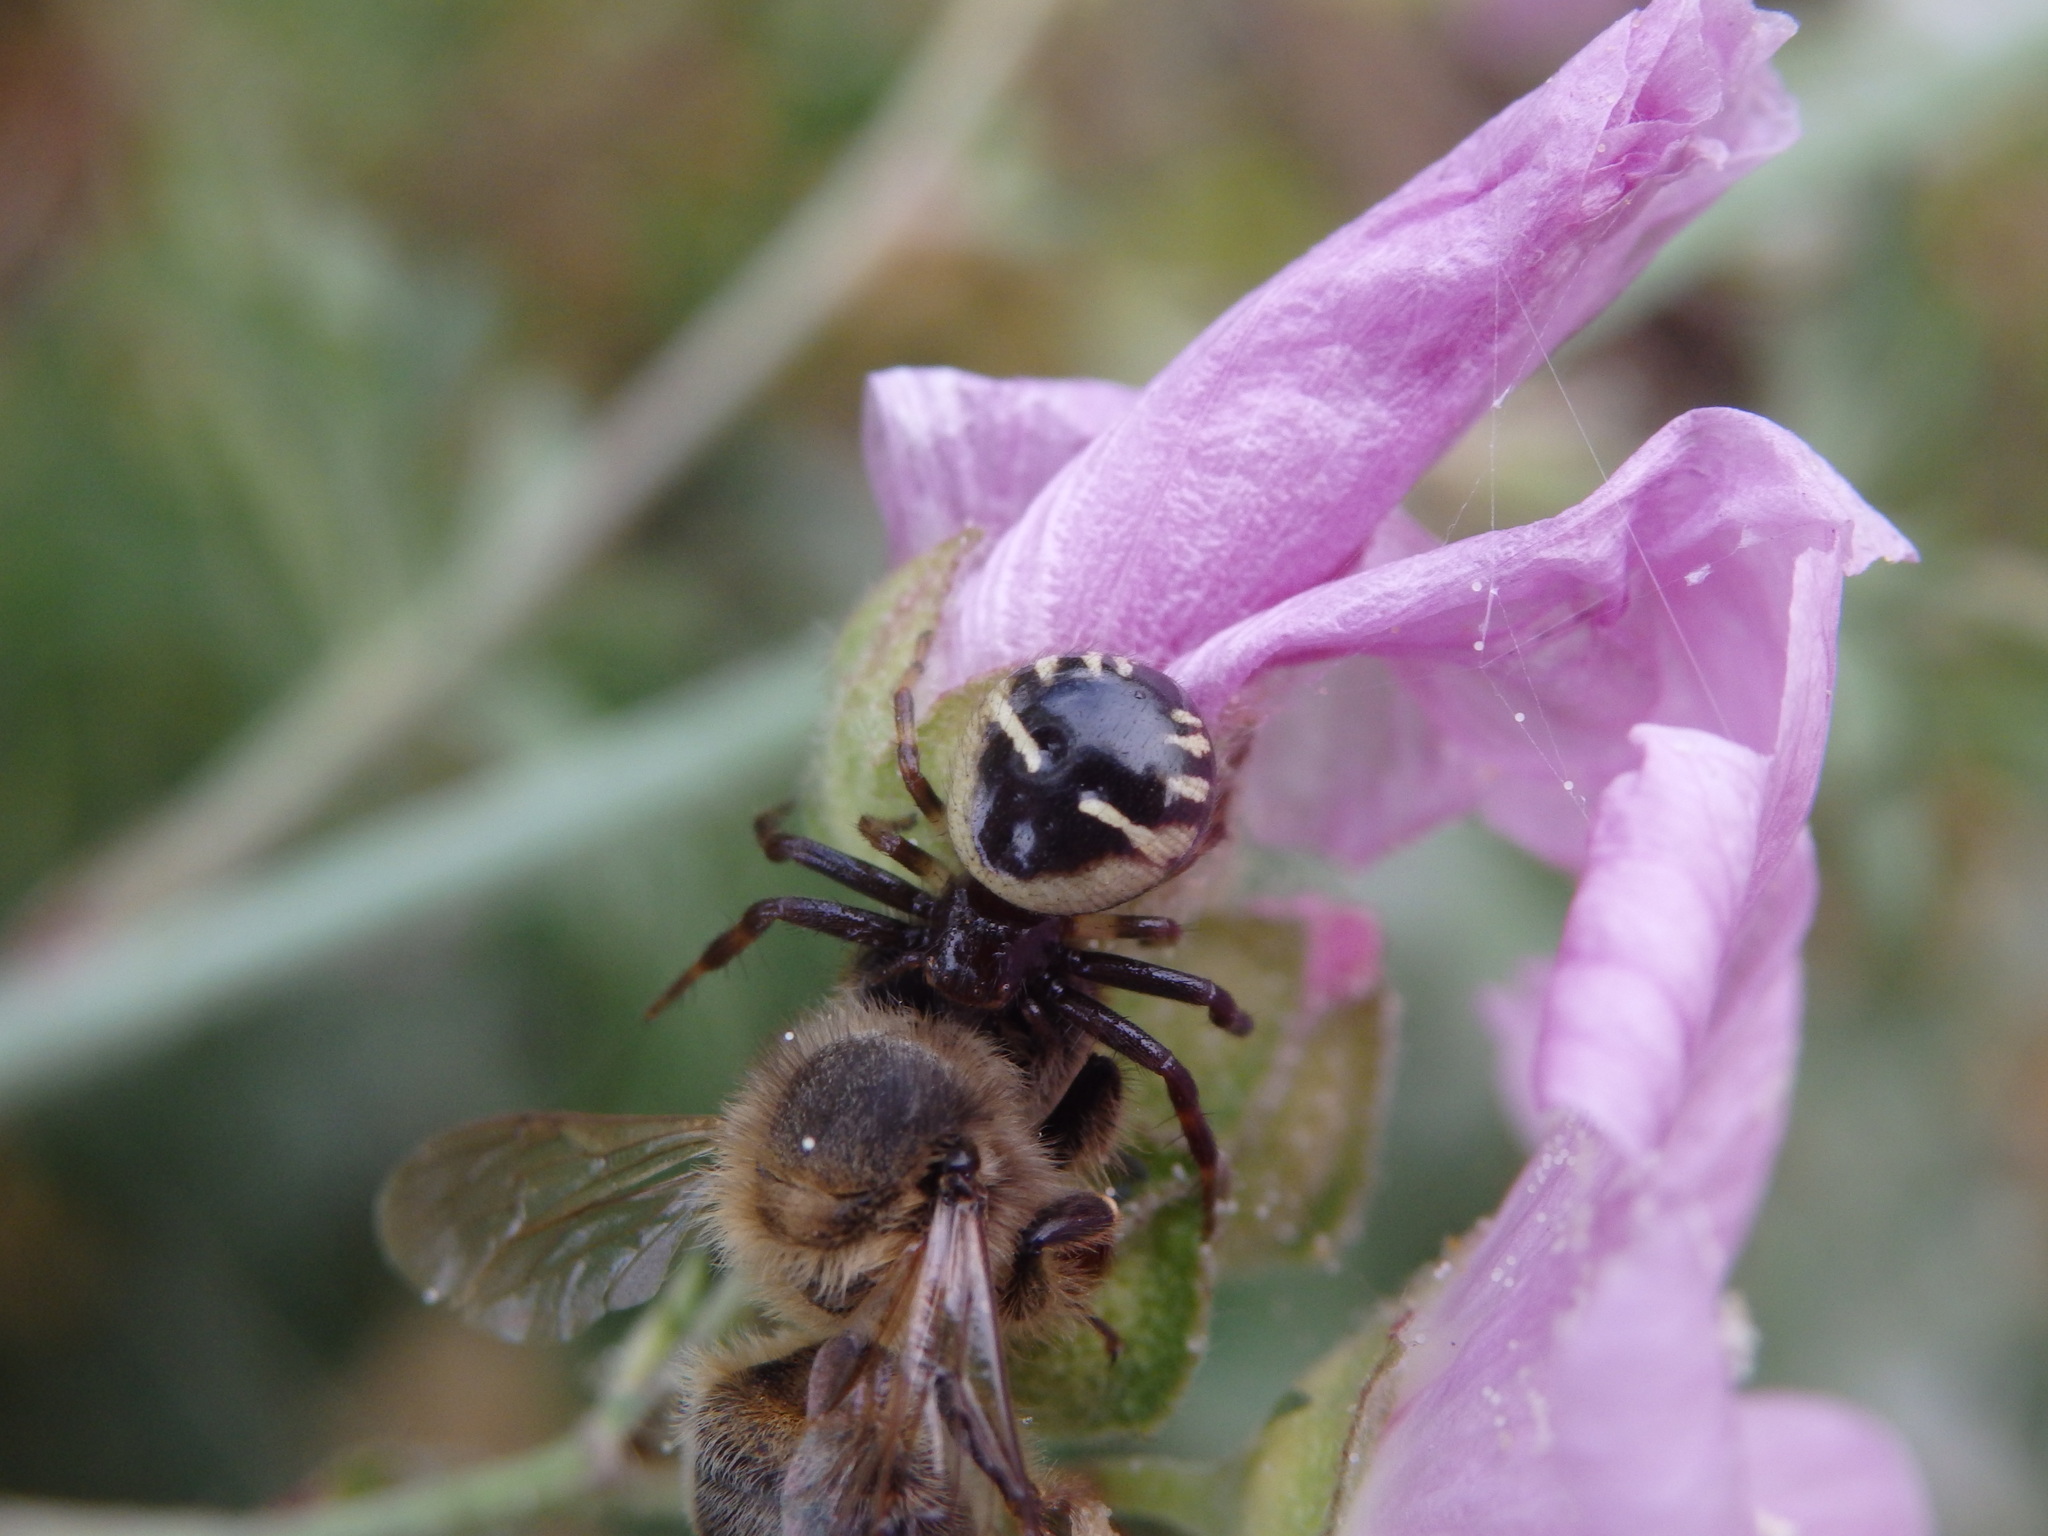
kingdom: Animalia
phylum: Arthropoda
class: Arachnida
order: Araneae
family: Thomisidae
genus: Synema
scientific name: Synema globosum
